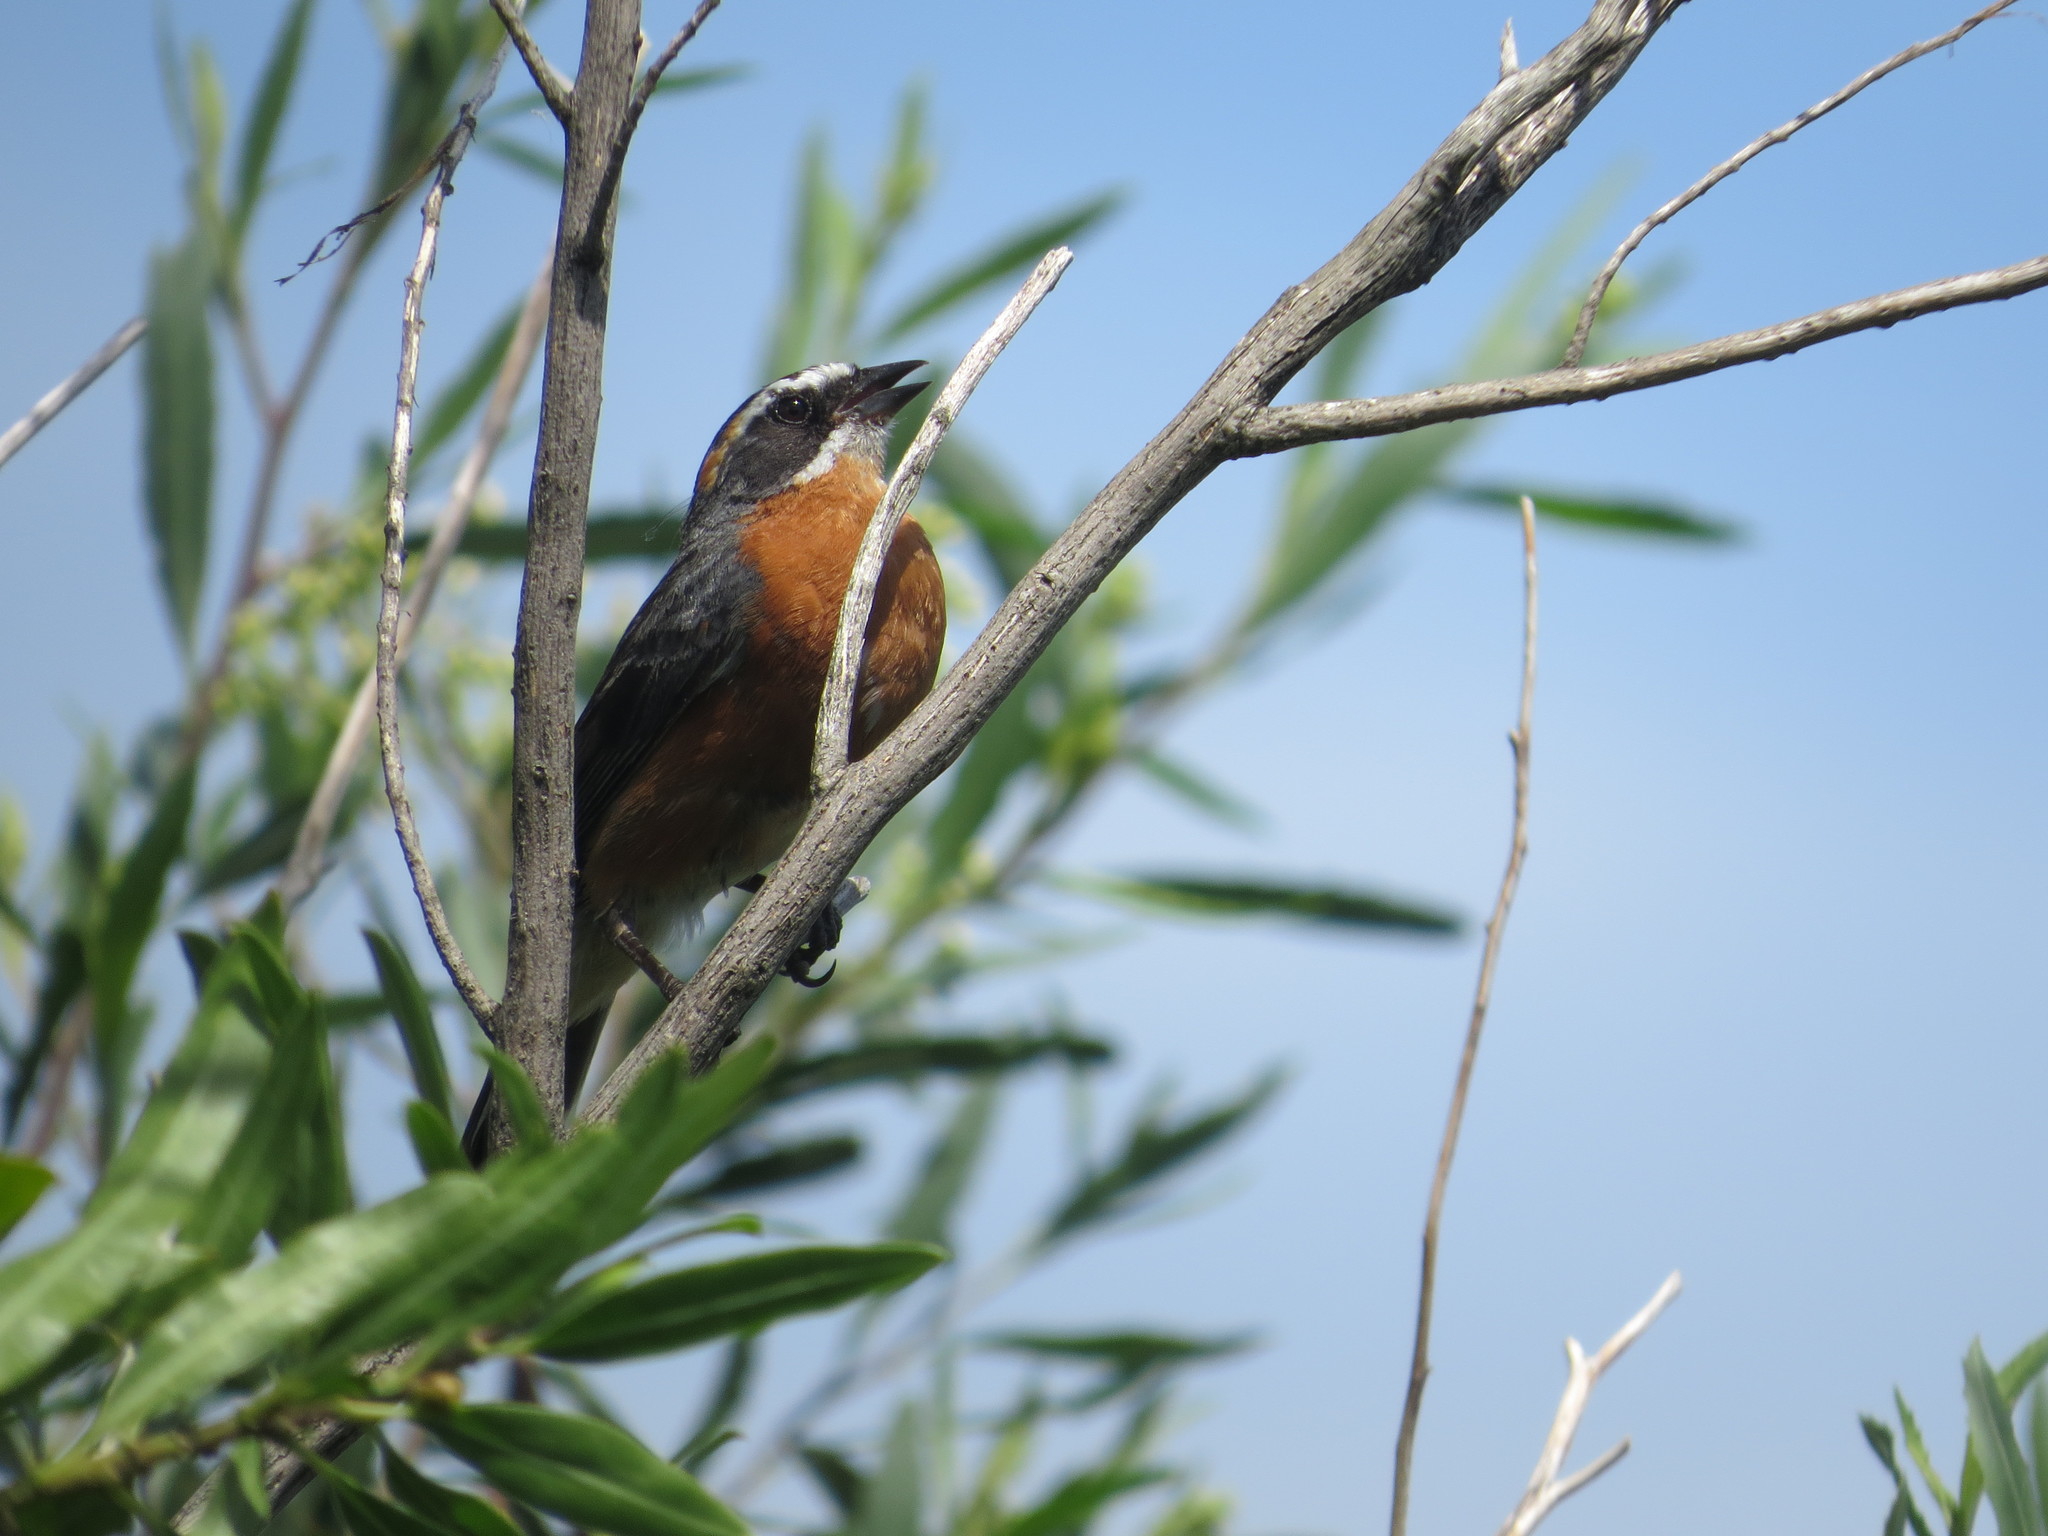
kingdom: Animalia
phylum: Chordata
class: Aves
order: Passeriformes
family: Thraupidae
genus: Poospiza
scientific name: Poospiza nigrorufa
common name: Black-and-rufous warbling finch
